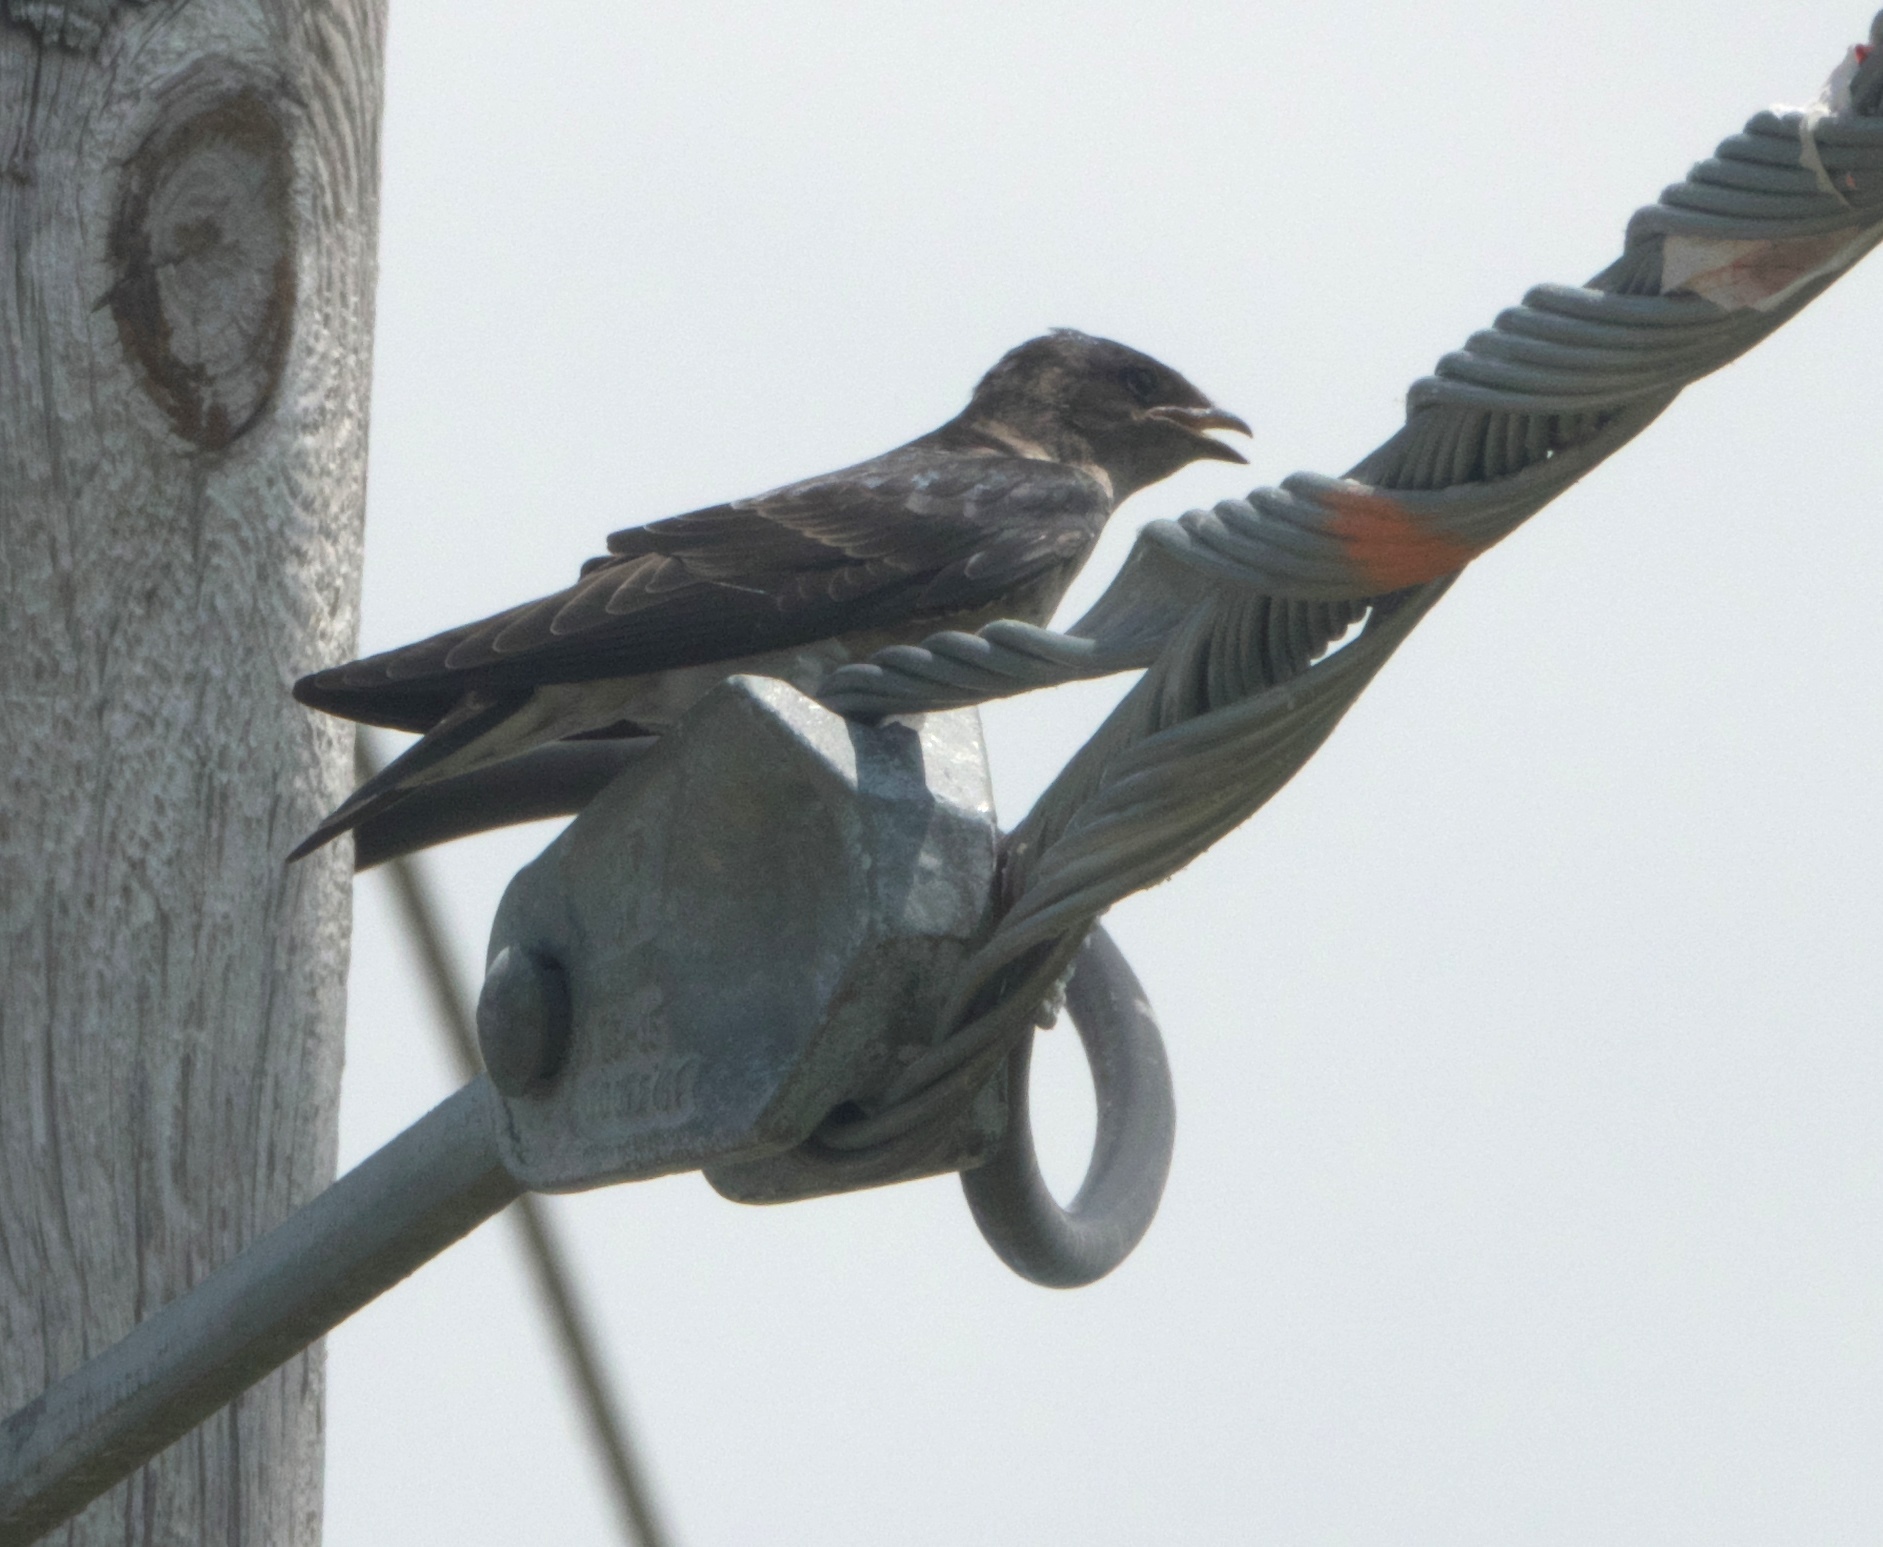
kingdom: Animalia
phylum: Chordata
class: Aves
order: Passeriformes
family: Hirundinidae
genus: Progne
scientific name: Progne subis
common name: Purple martin
